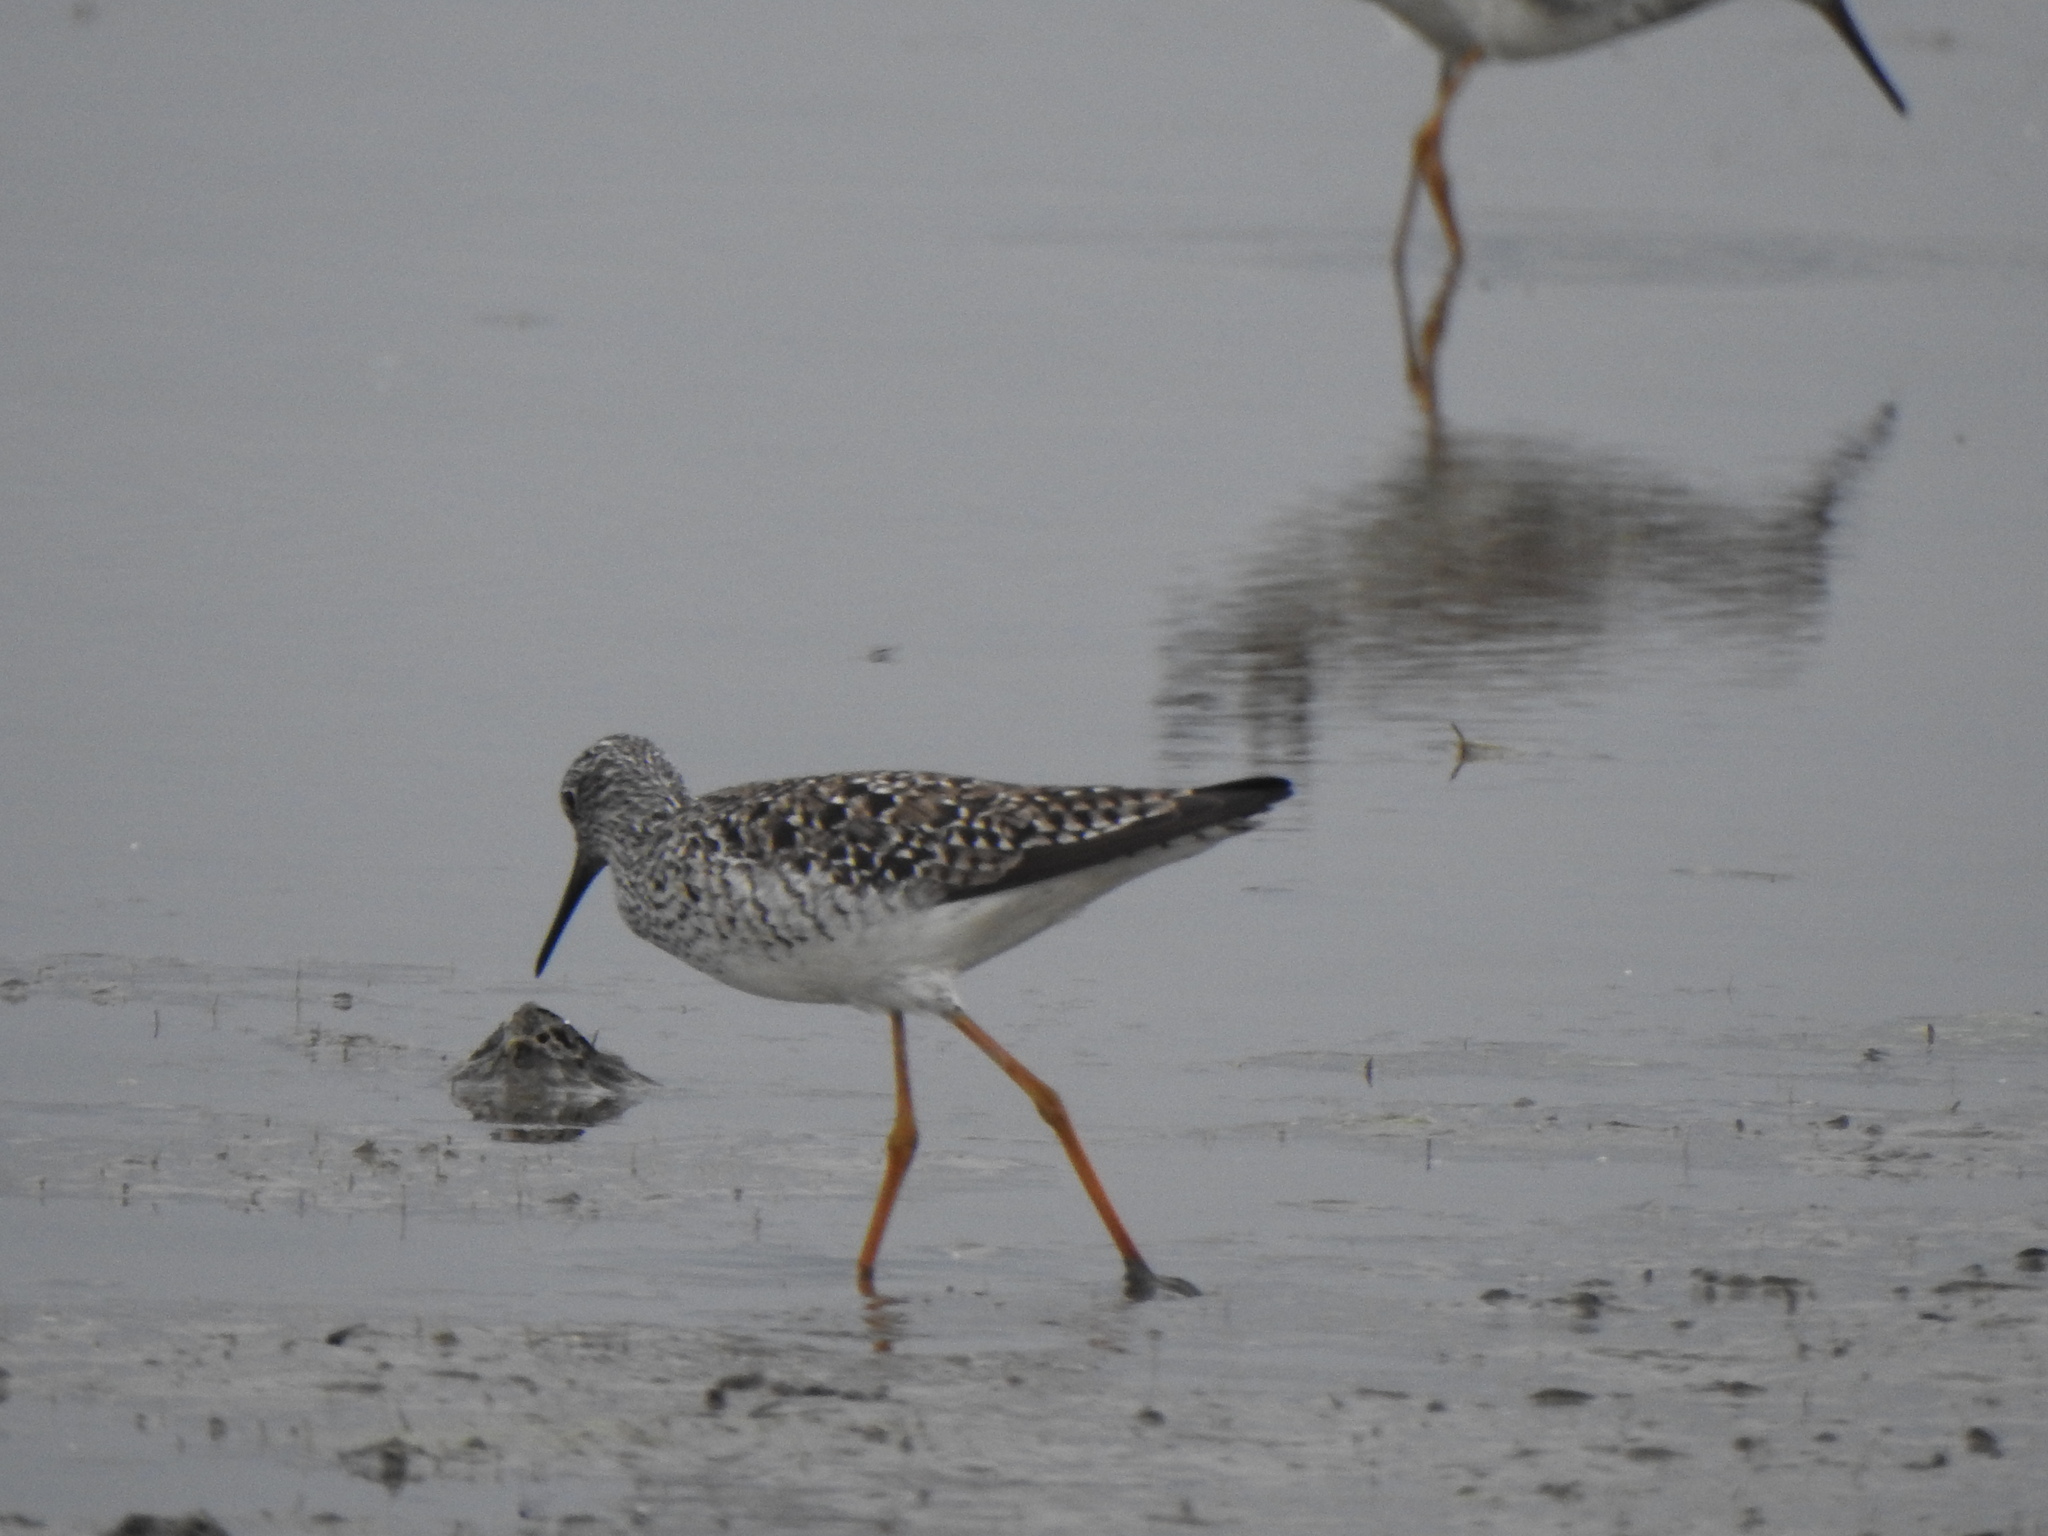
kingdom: Animalia
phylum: Chordata
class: Aves
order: Charadriiformes
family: Scolopacidae
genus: Tringa
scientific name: Tringa flavipes
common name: Lesser yellowlegs
